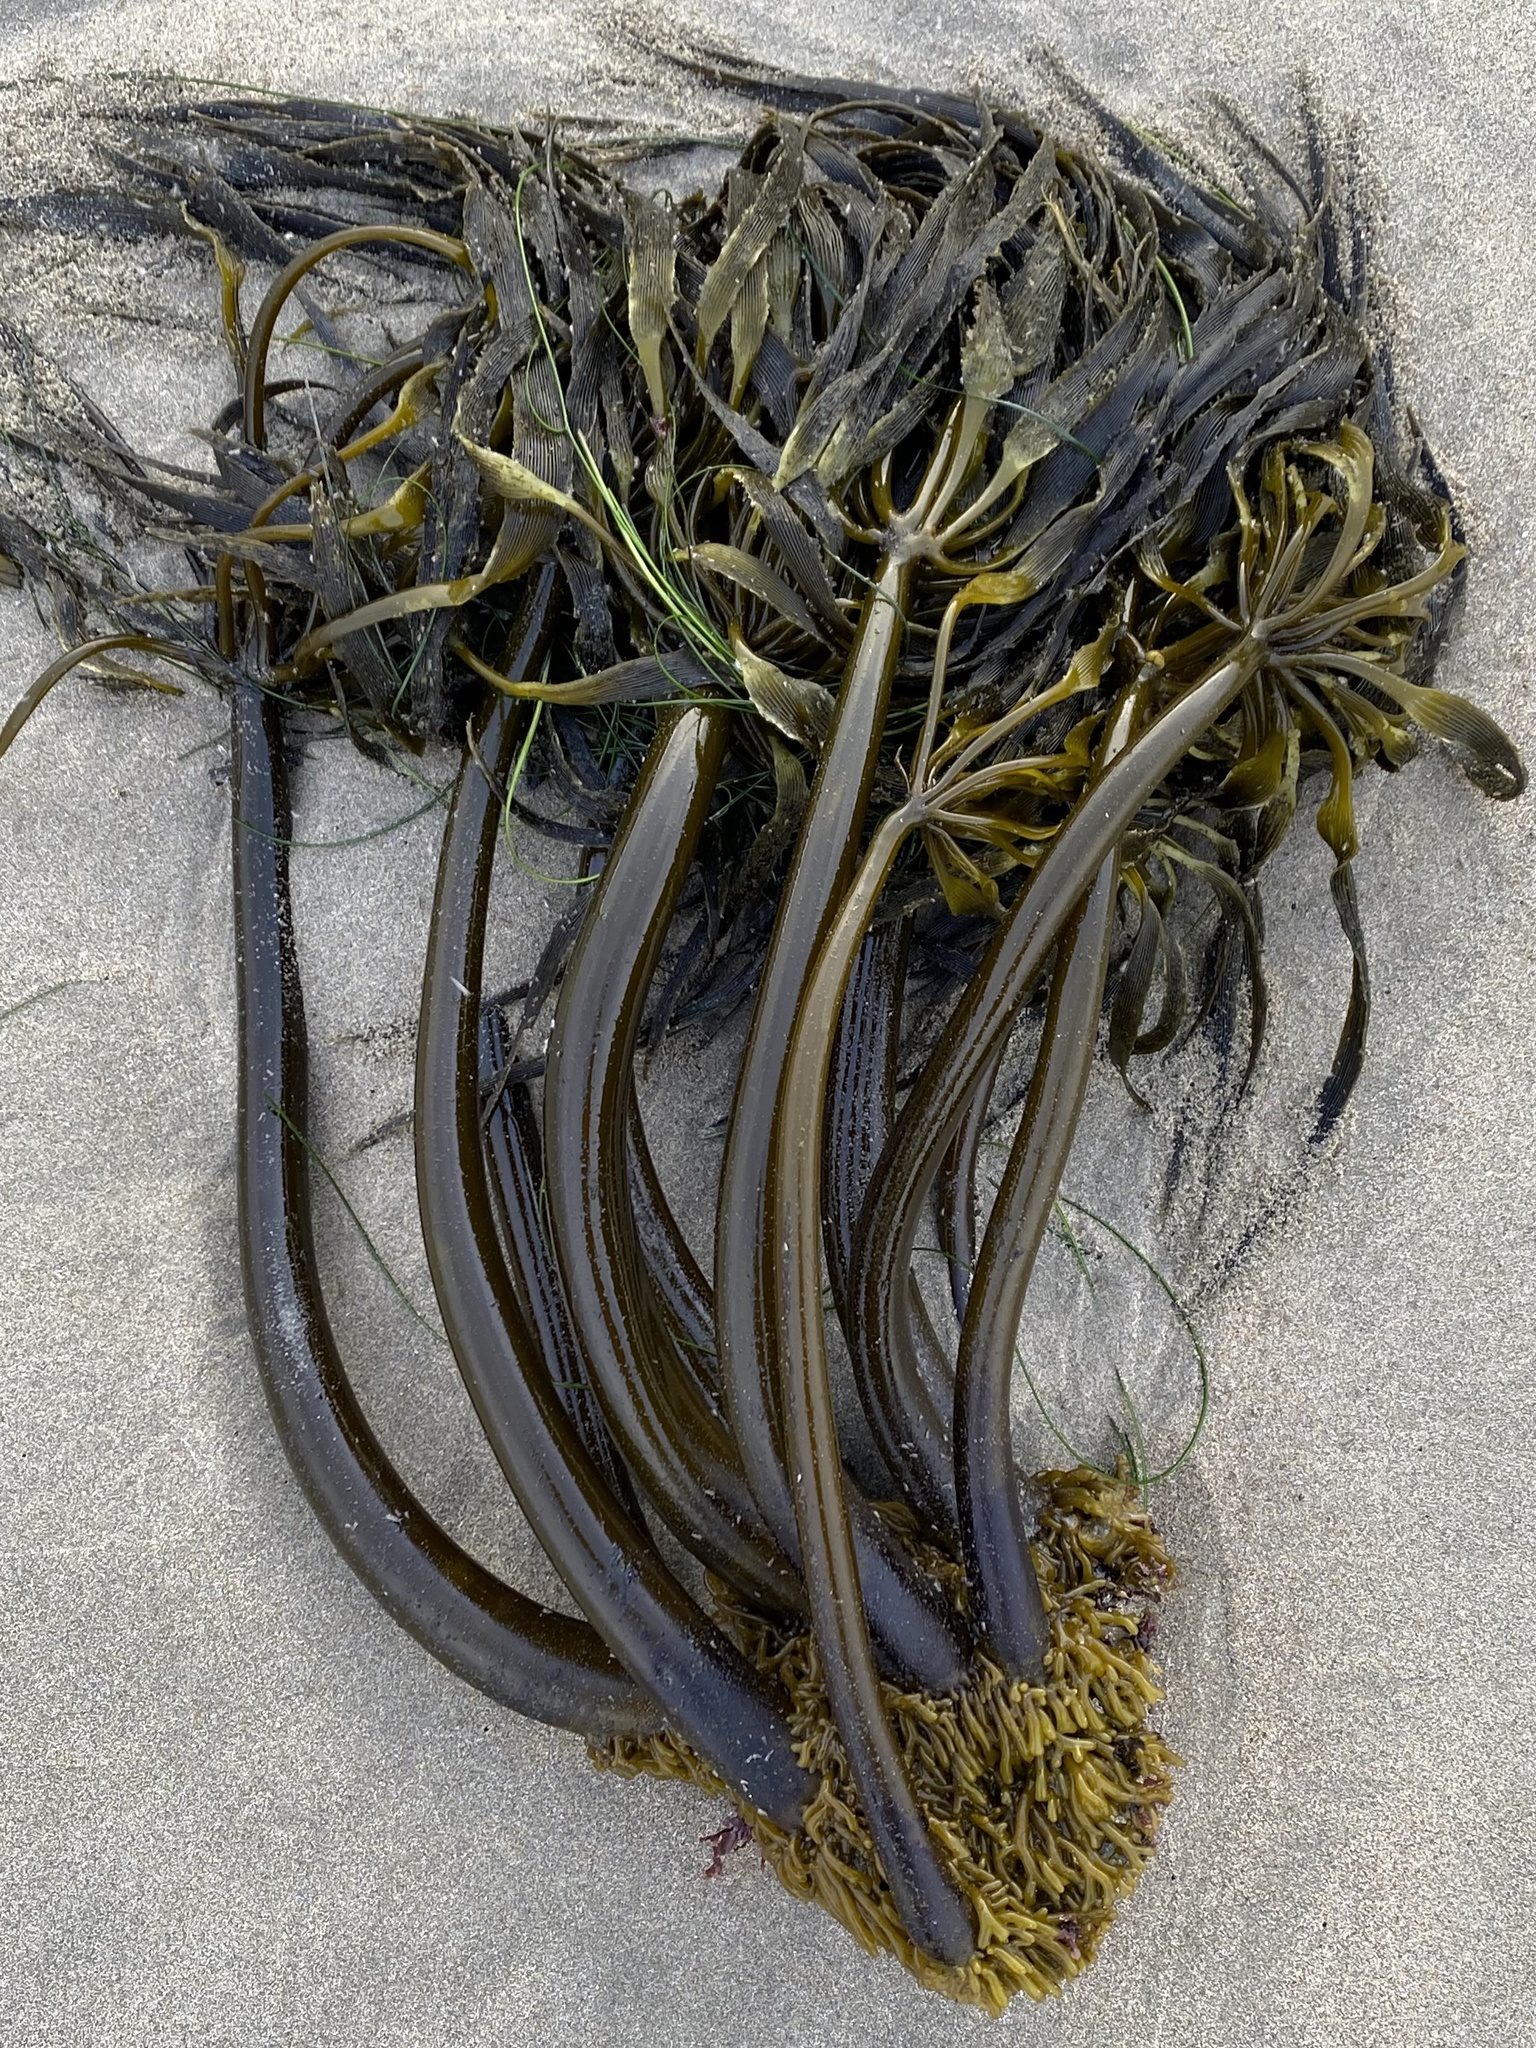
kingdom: Chromista
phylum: Ochrophyta
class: Phaeophyceae
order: Laminariales
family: Laminariaceae
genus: Postelsia
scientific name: Postelsia palmiformis
